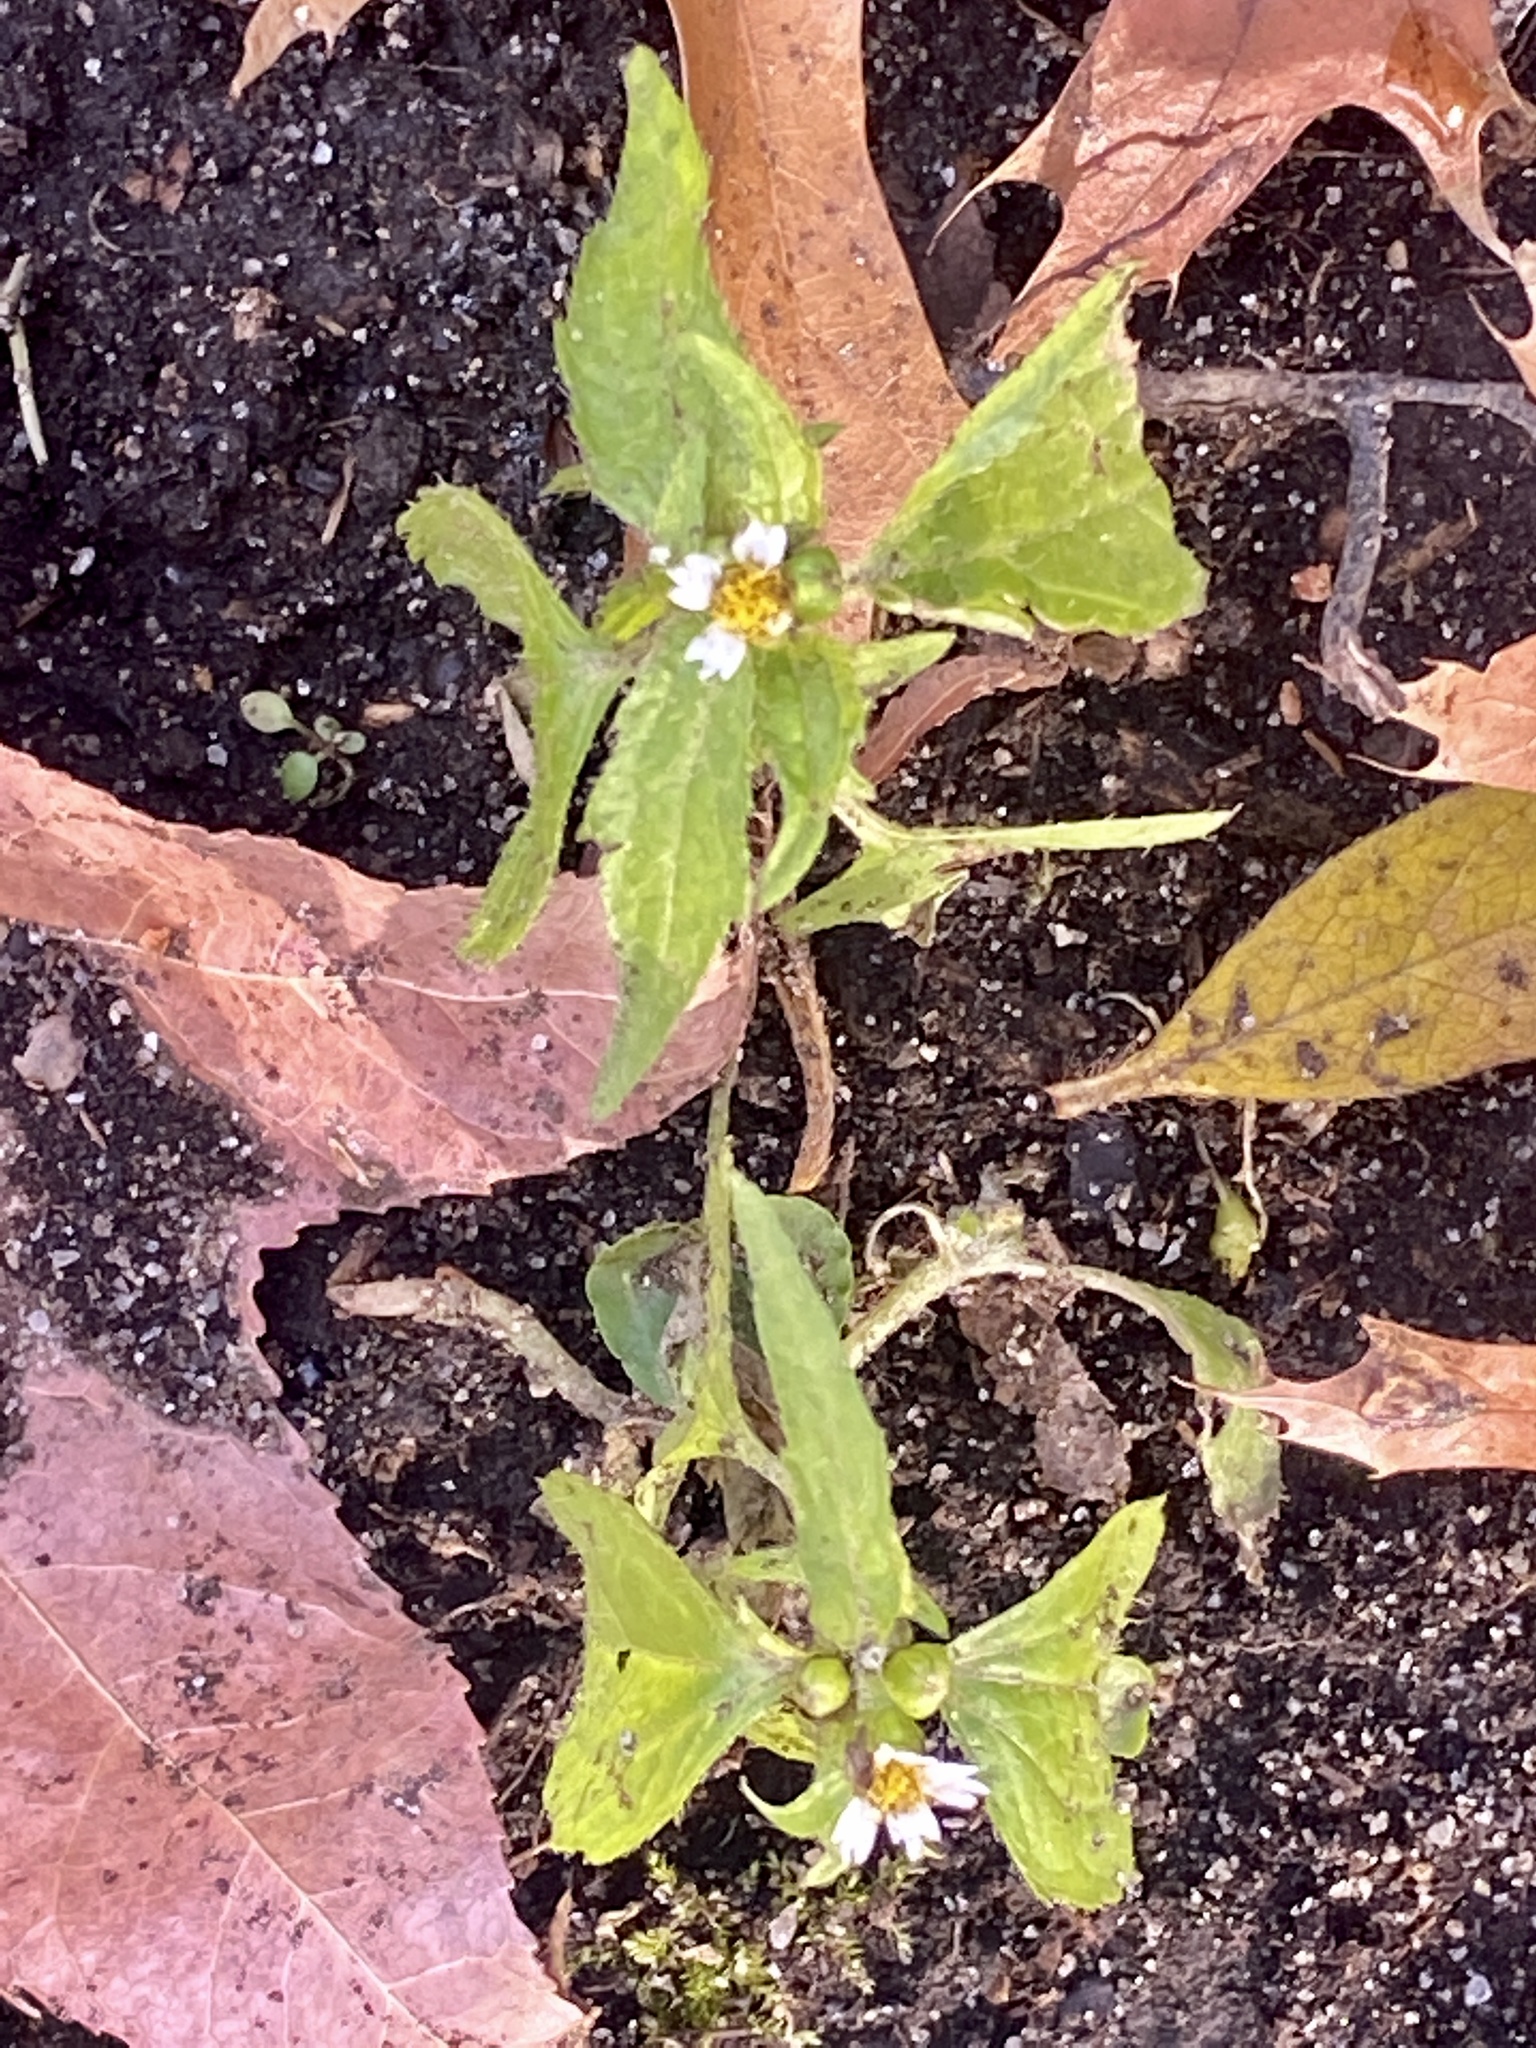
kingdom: Plantae
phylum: Tracheophyta
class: Magnoliopsida
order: Asterales
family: Asteraceae
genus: Galinsoga
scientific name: Galinsoga quadriradiata
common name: Shaggy soldier
